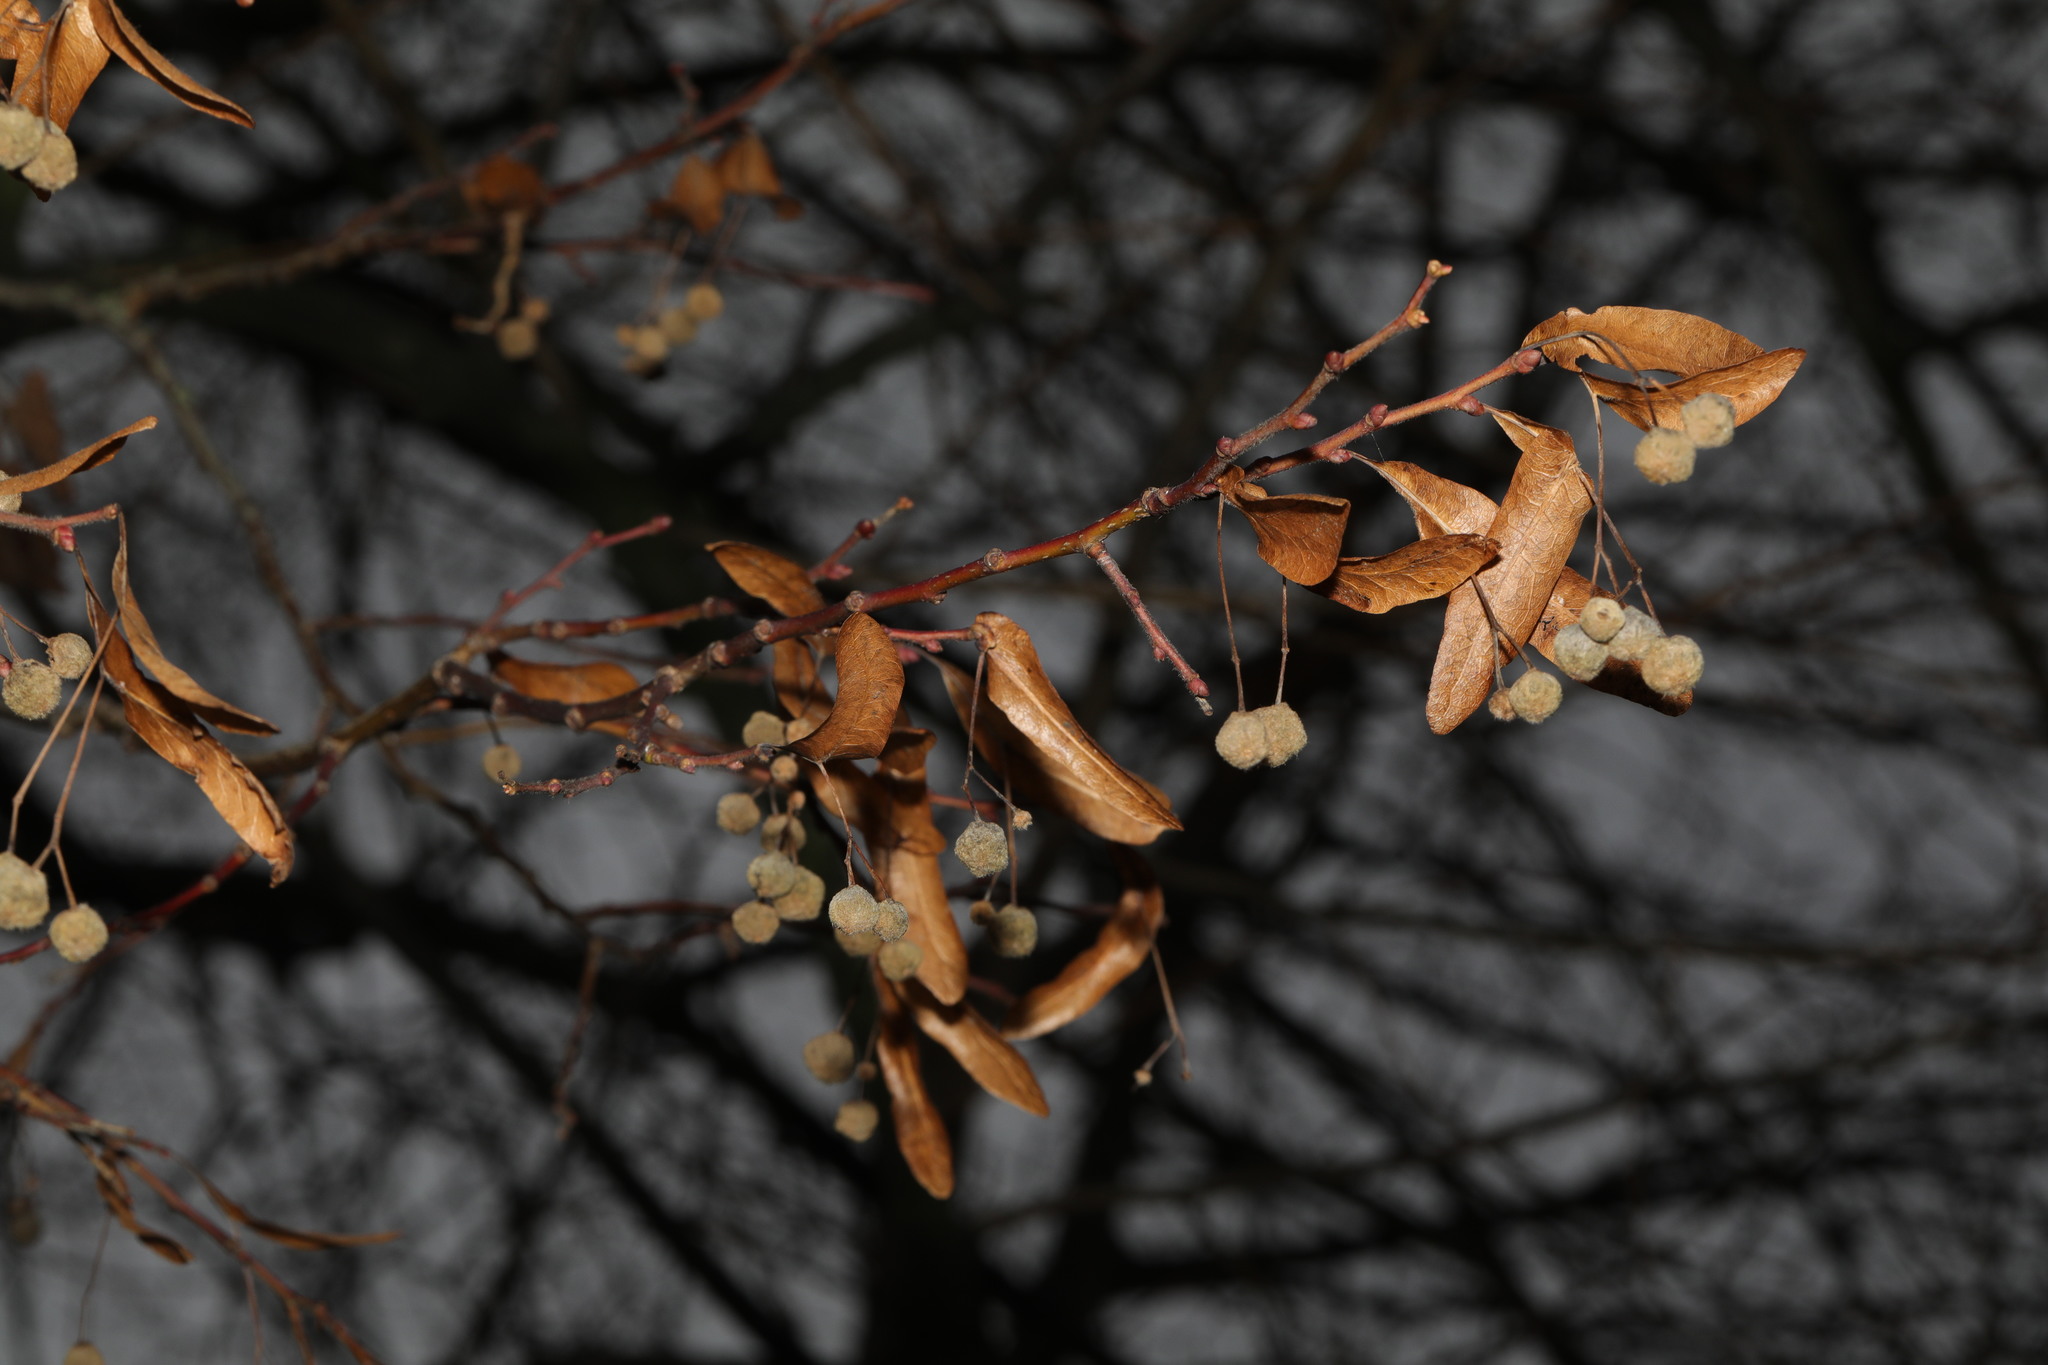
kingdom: Plantae
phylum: Tracheophyta
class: Magnoliopsida
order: Malvales
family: Malvaceae
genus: Tilia
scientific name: Tilia europaea
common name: European linden
